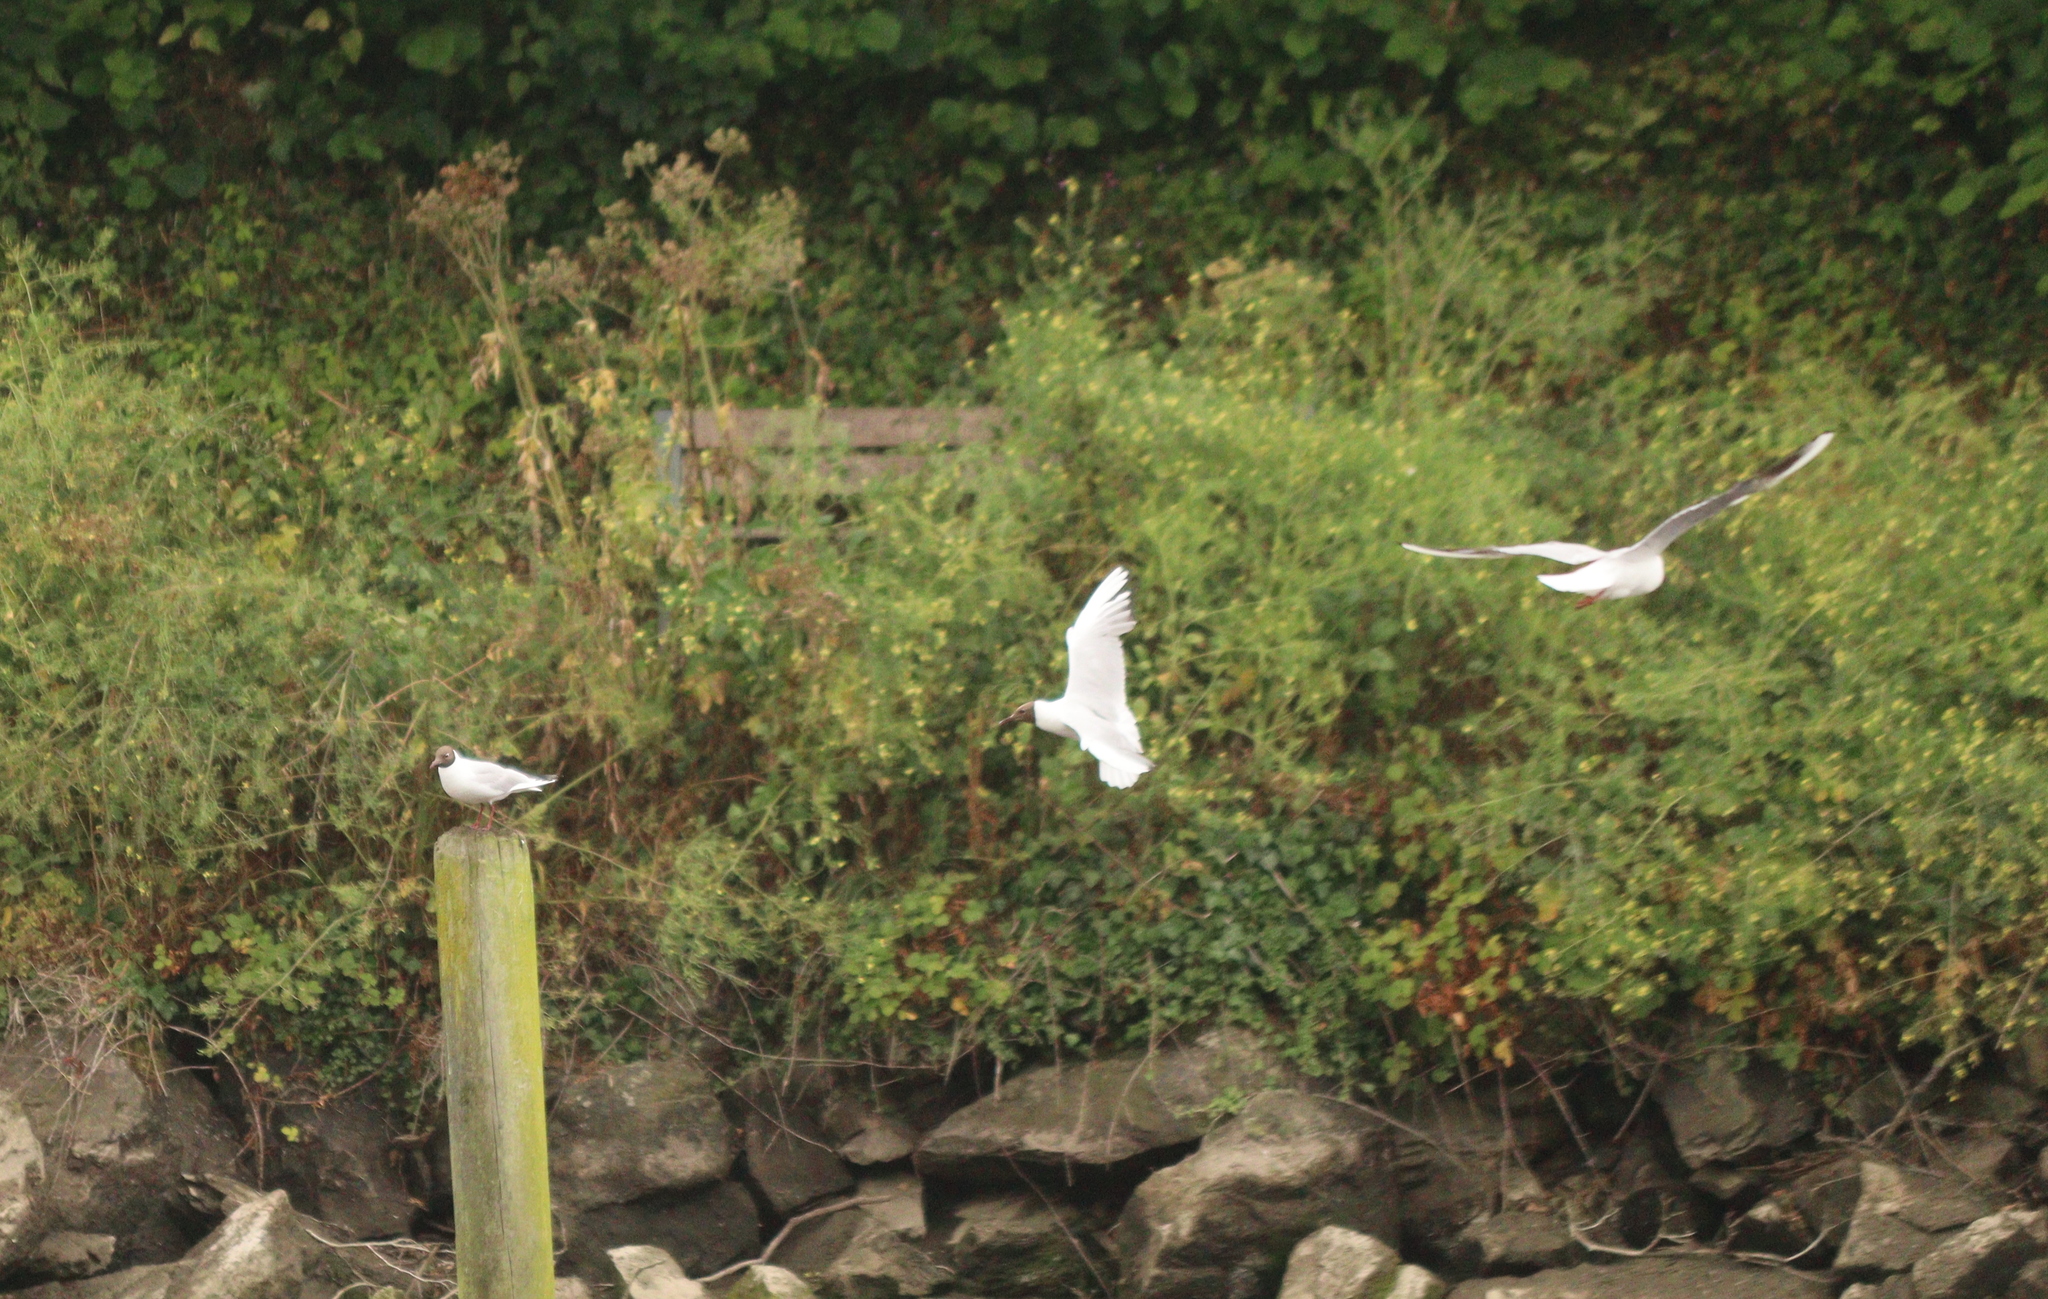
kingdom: Animalia
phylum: Chordata
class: Aves
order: Charadriiformes
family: Laridae
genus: Chroicocephalus
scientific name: Chroicocephalus ridibundus
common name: Black-headed gull
